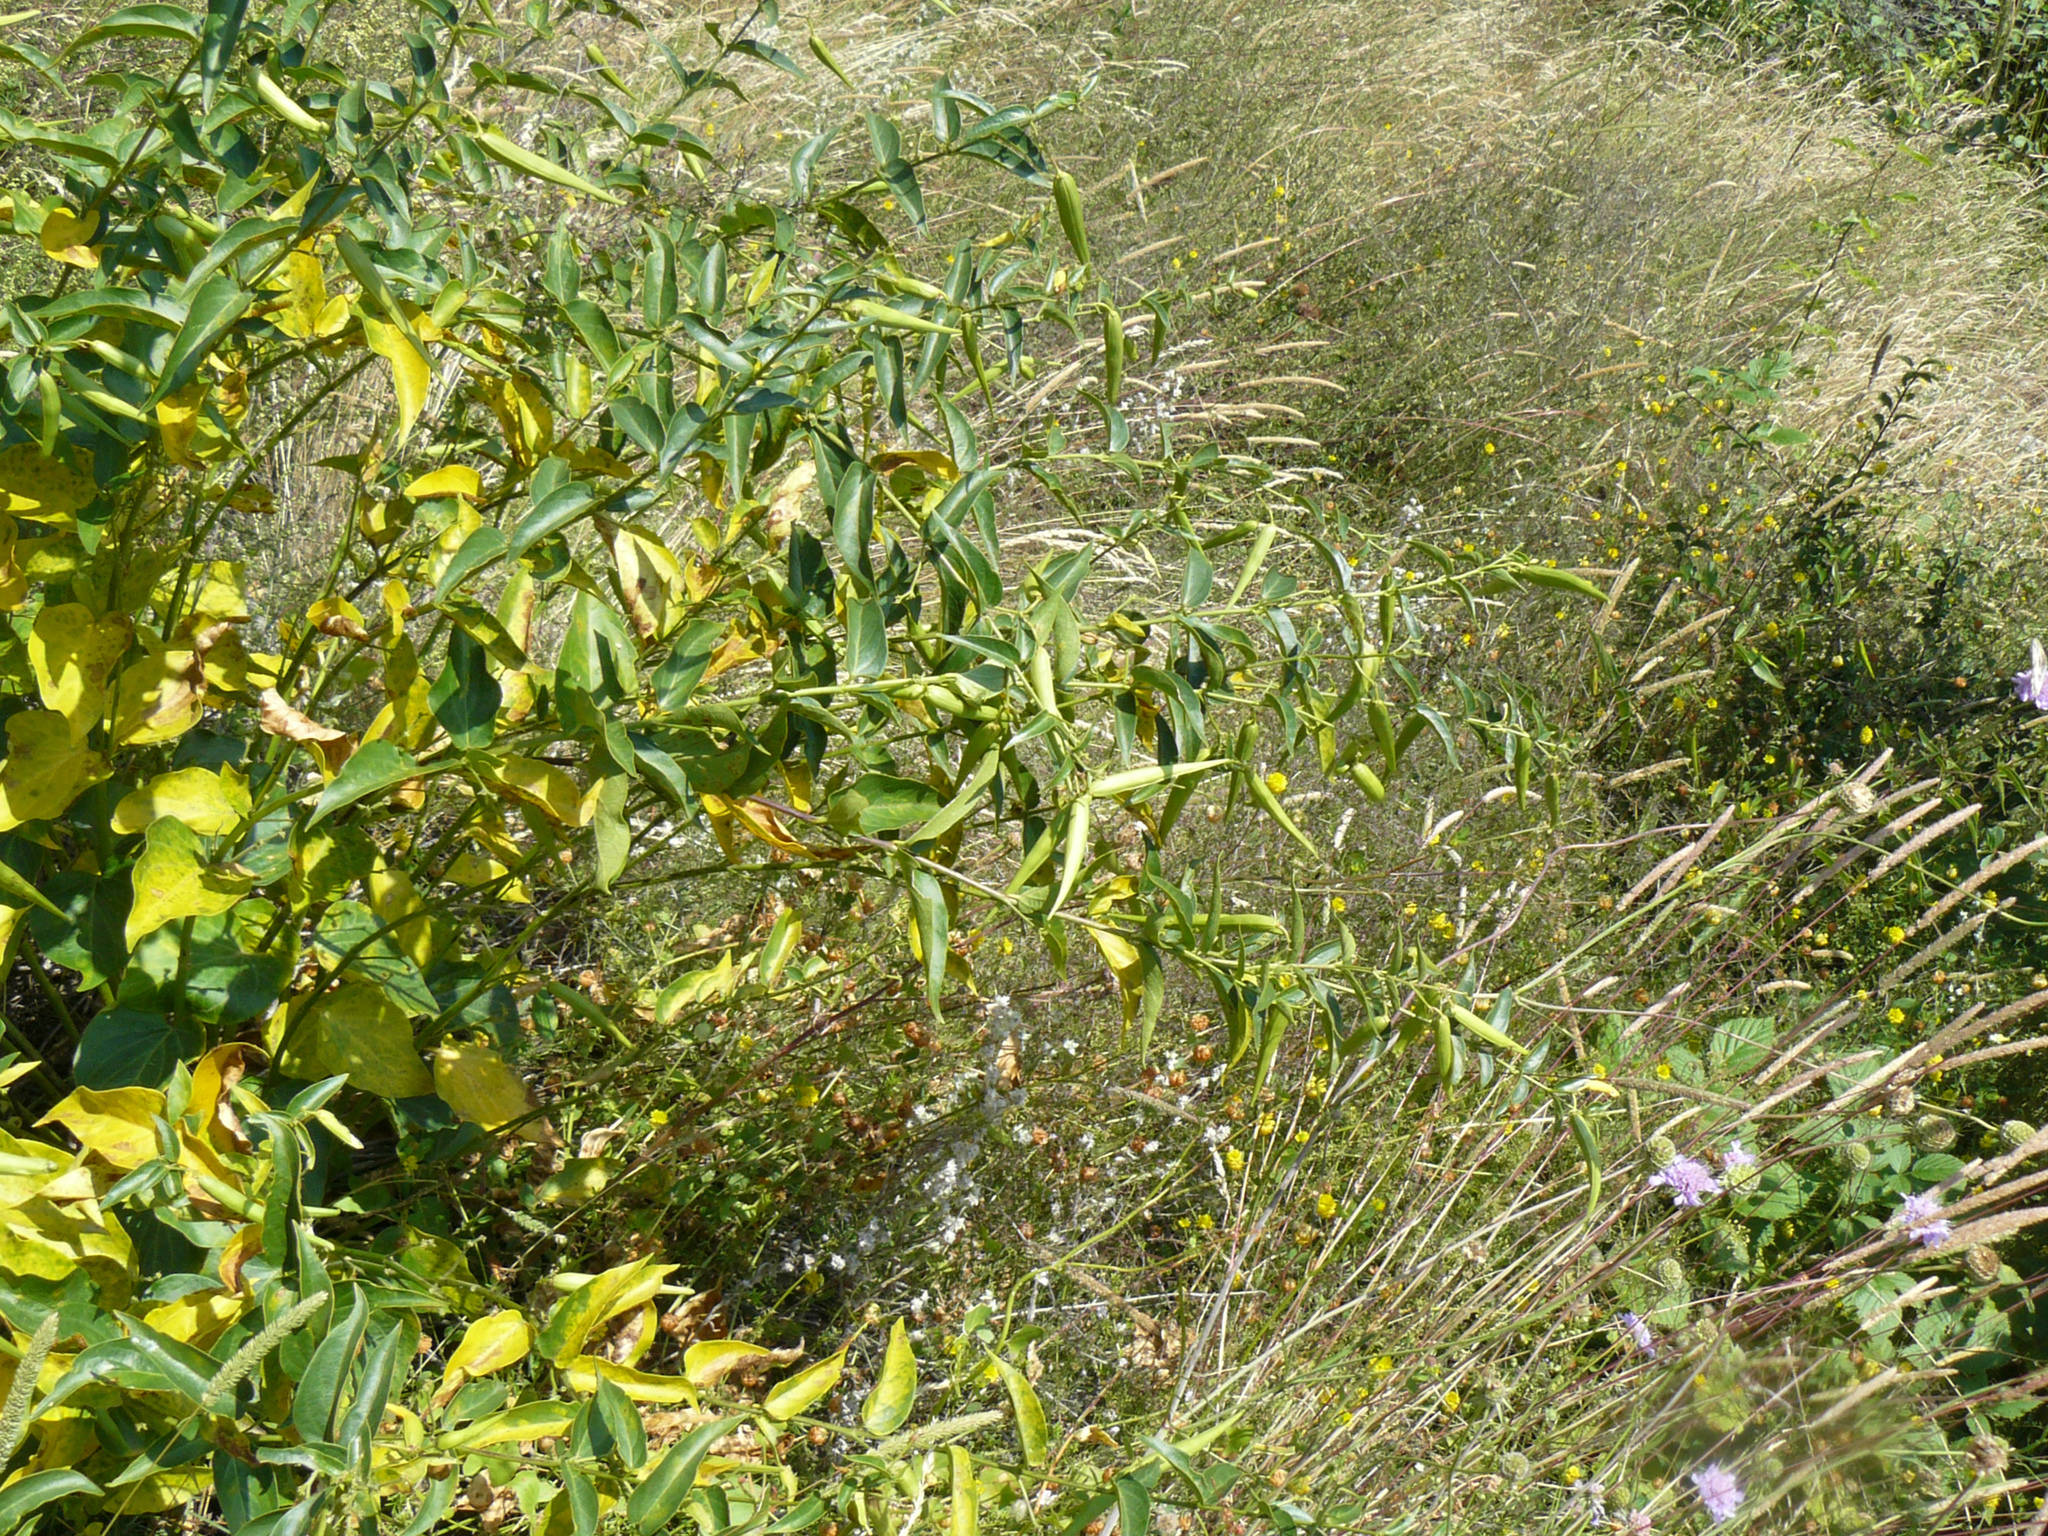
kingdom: Plantae
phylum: Tracheophyta
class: Magnoliopsida
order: Gentianales
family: Apocynaceae
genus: Vincetoxicum
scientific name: Vincetoxicum hirundinaria
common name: White swallowwort
